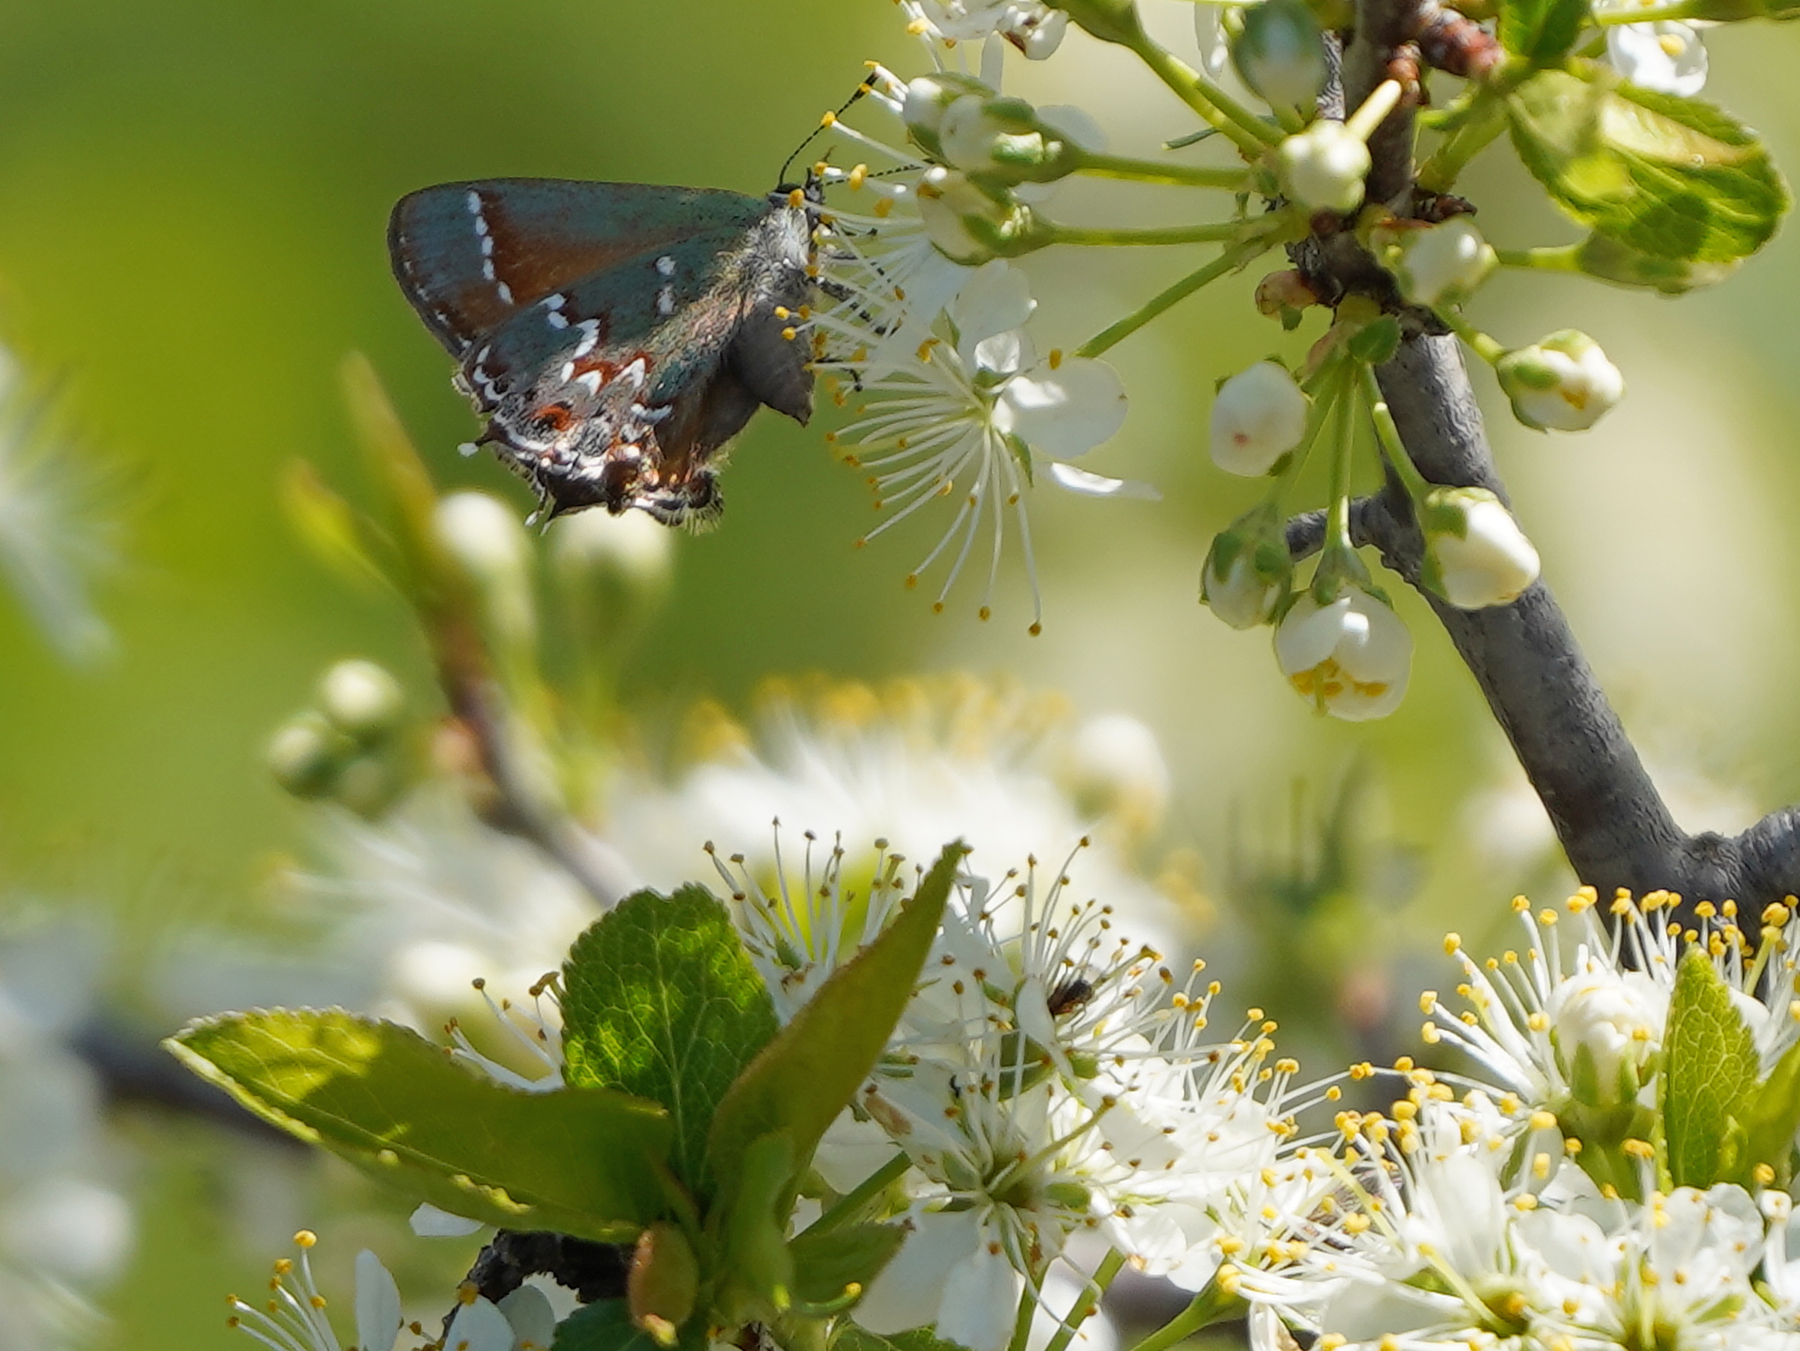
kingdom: Animalia
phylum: Arthropoda
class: Insecta
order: Lepidoptera
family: Lycaenidae
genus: Mitoura
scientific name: Mitoura gryneus
